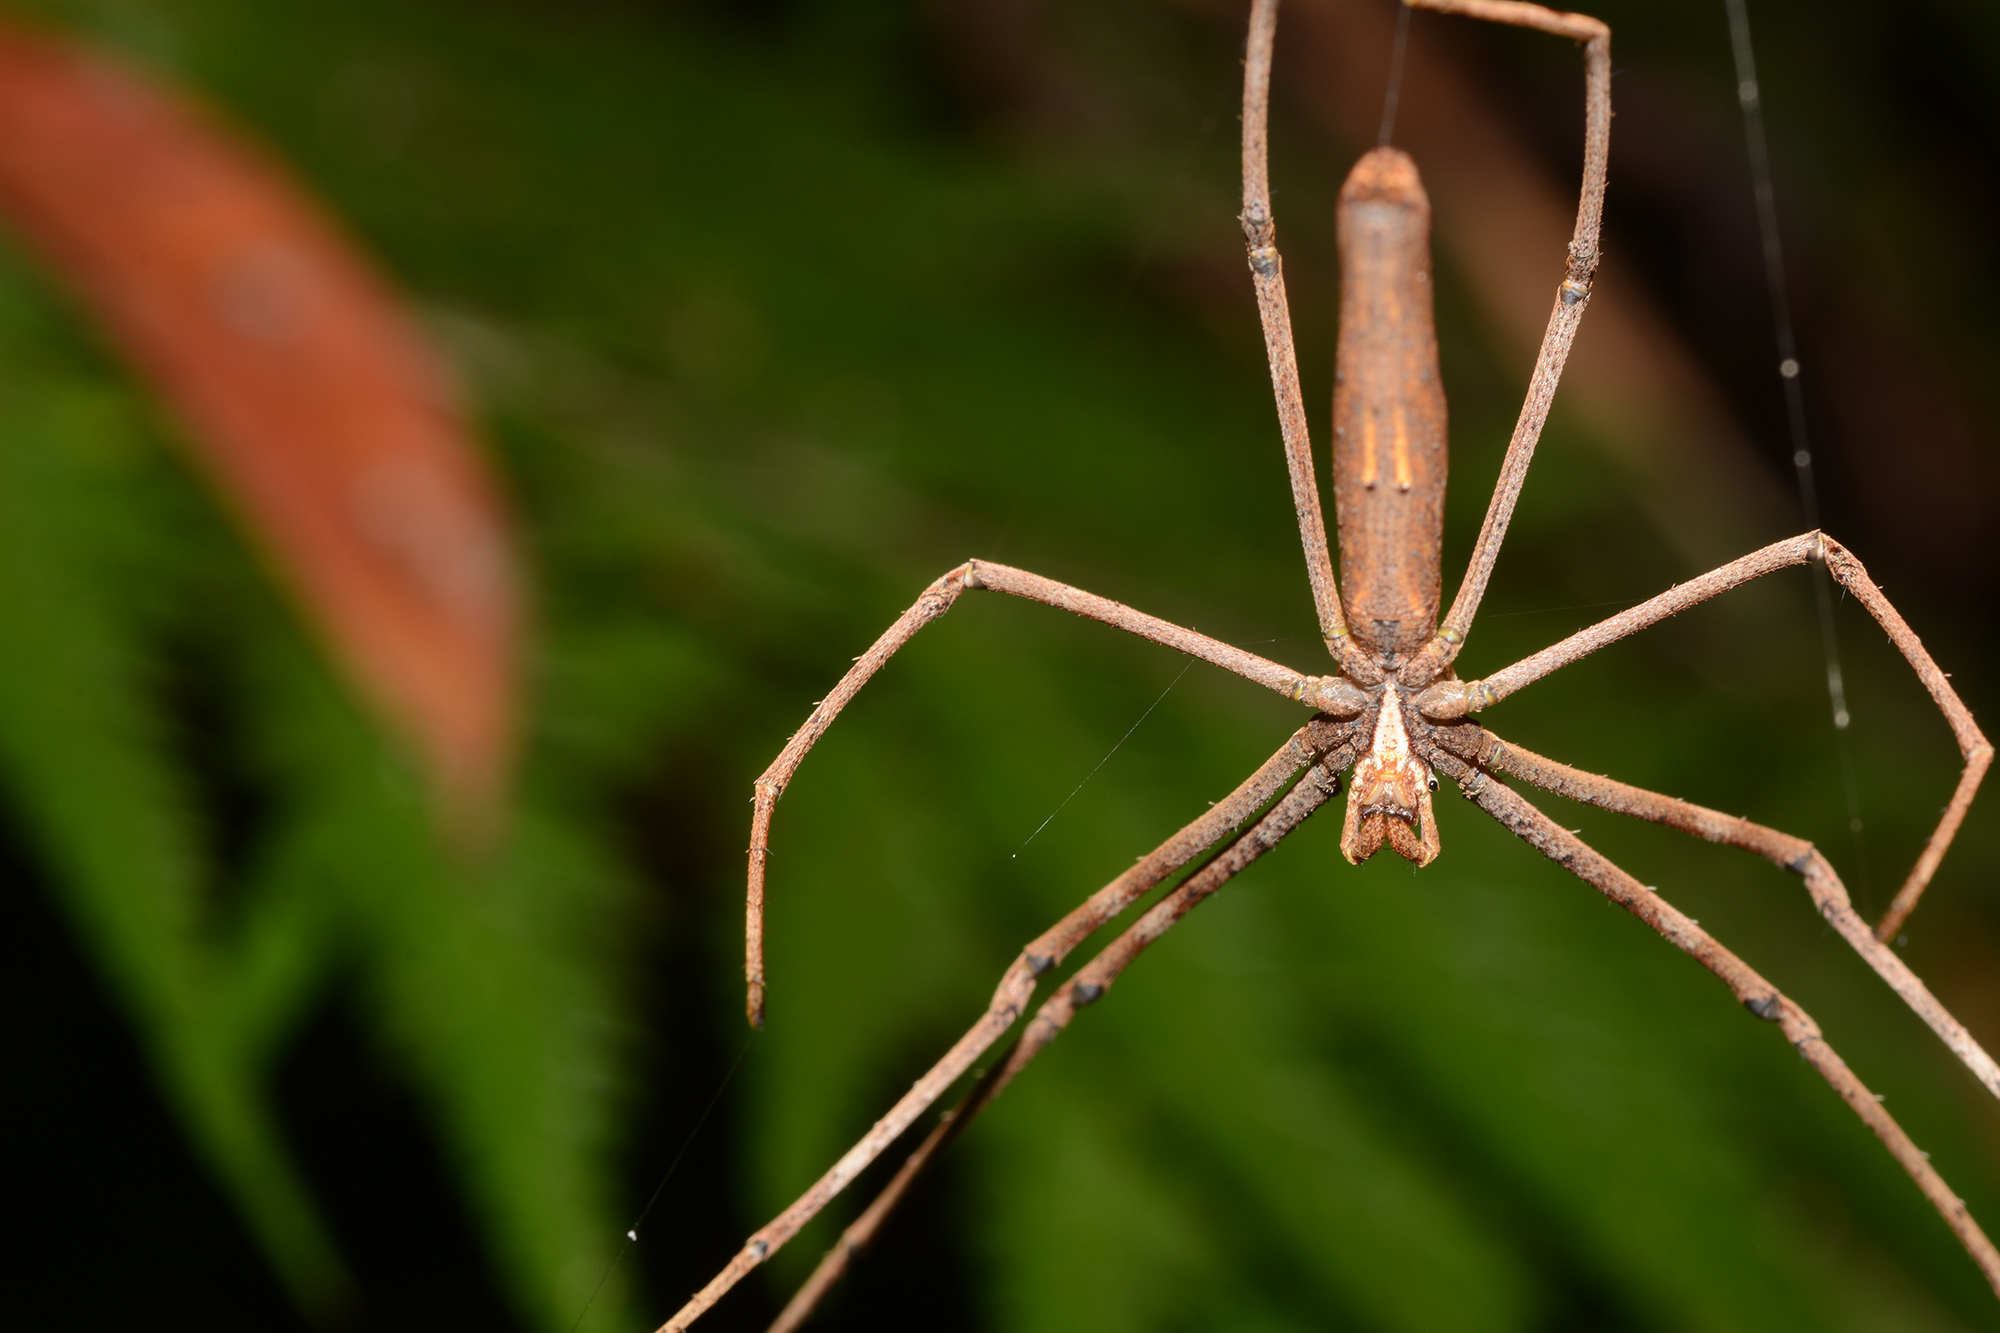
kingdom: Animalia
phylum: Arthropoda
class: Arachnida
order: Araneae
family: Deinopidae
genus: Deinopis
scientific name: Deinopis subrufa
